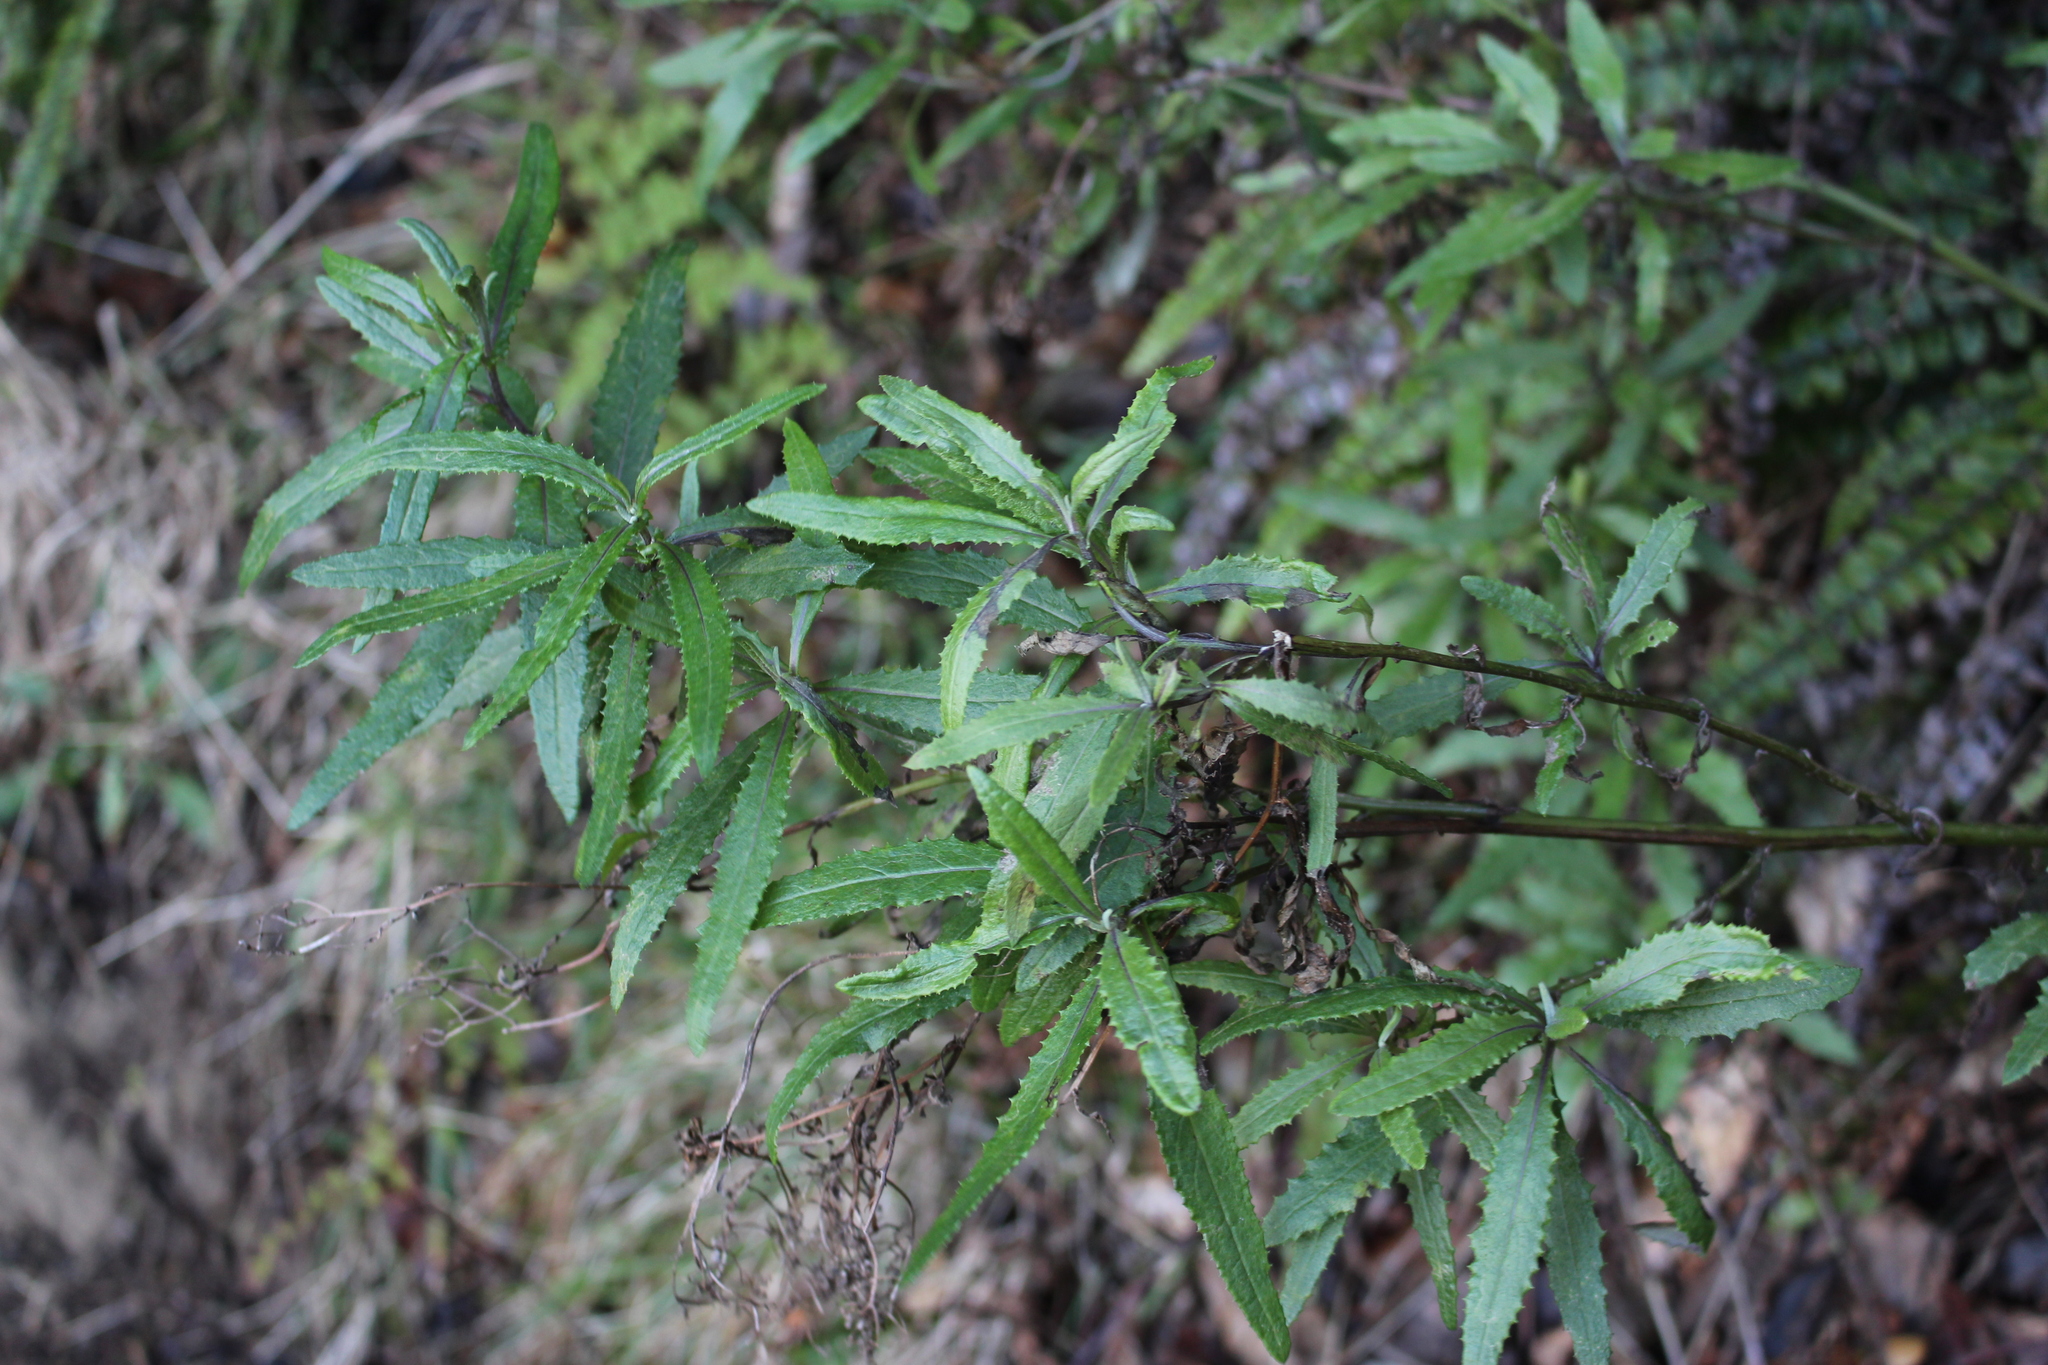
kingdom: Plantae
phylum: Tracheophyta
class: Magnoliopsida
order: Asterales
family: Asteraceae
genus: Senecio
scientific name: Senecio minimus
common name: Toothed fireweed
